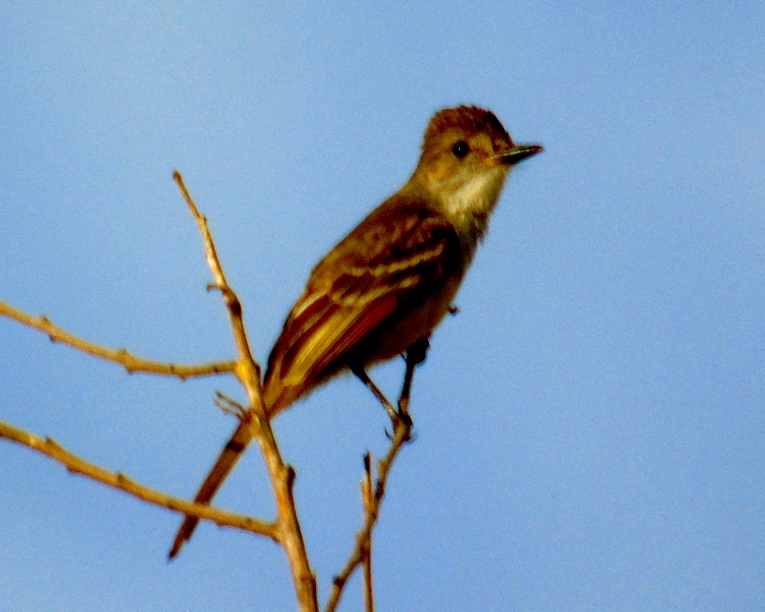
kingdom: Animalia
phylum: Chordata
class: Aves
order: Passeriformes
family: Tyrannidae
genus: Myiarchus
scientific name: Myiarchus
